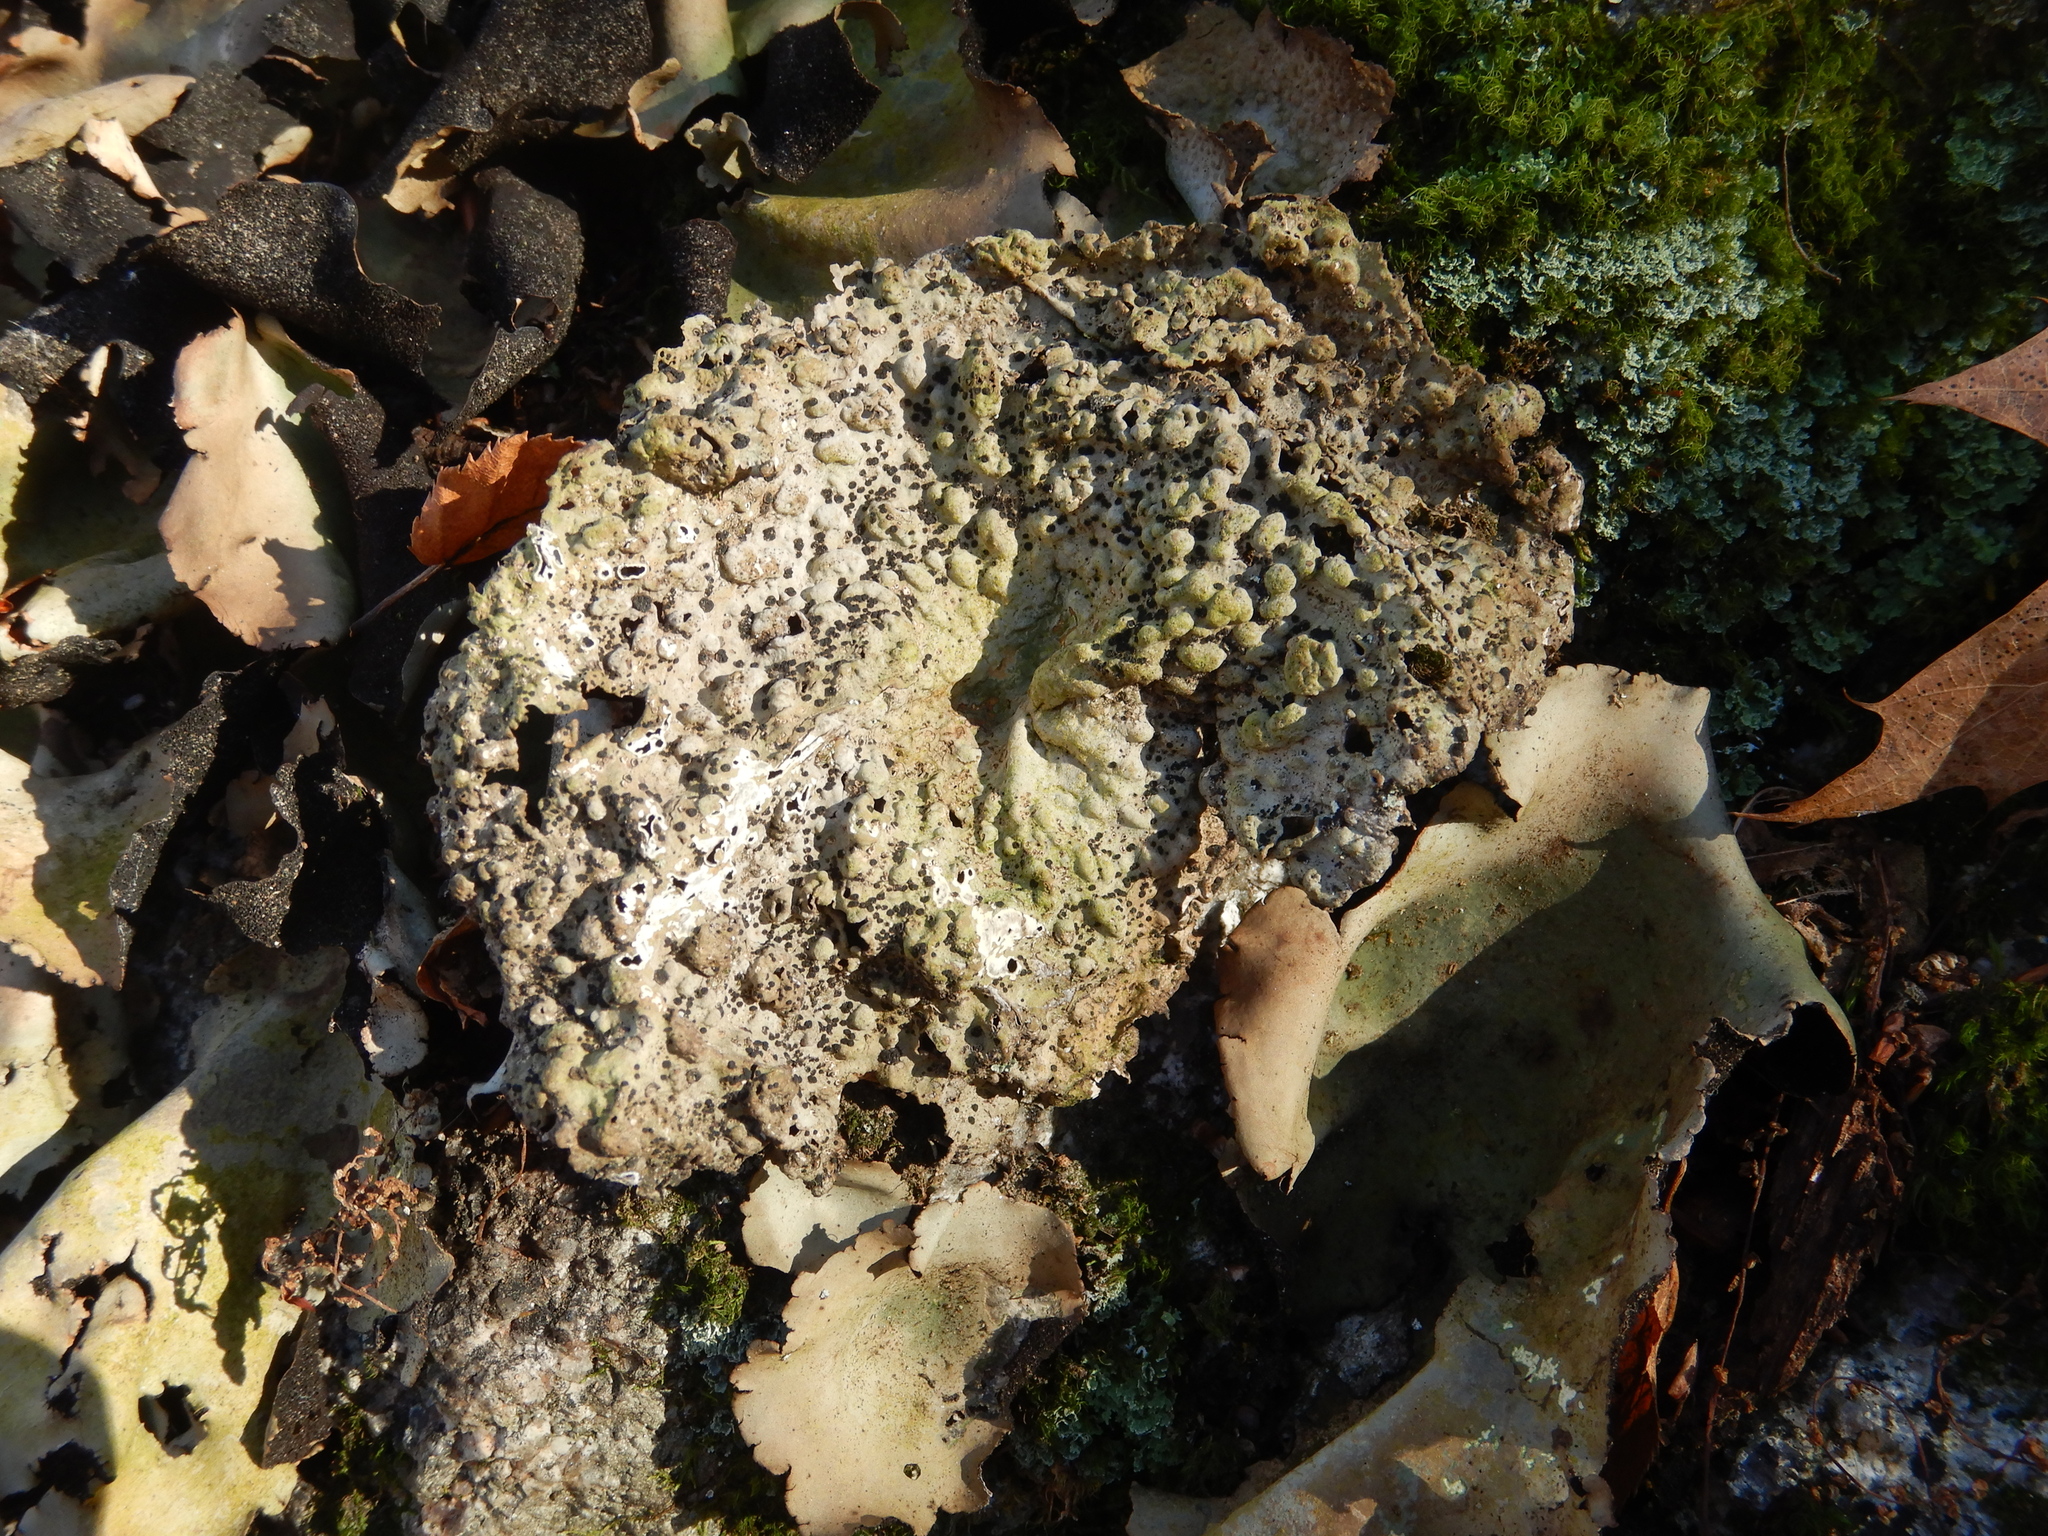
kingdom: Fungi
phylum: Ascomycota
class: Lecanoromycetes
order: Umbilicariales
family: Umbilicariaceae
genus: Lasallia
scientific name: Lasallia papulosa
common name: Common toadskin lichen
